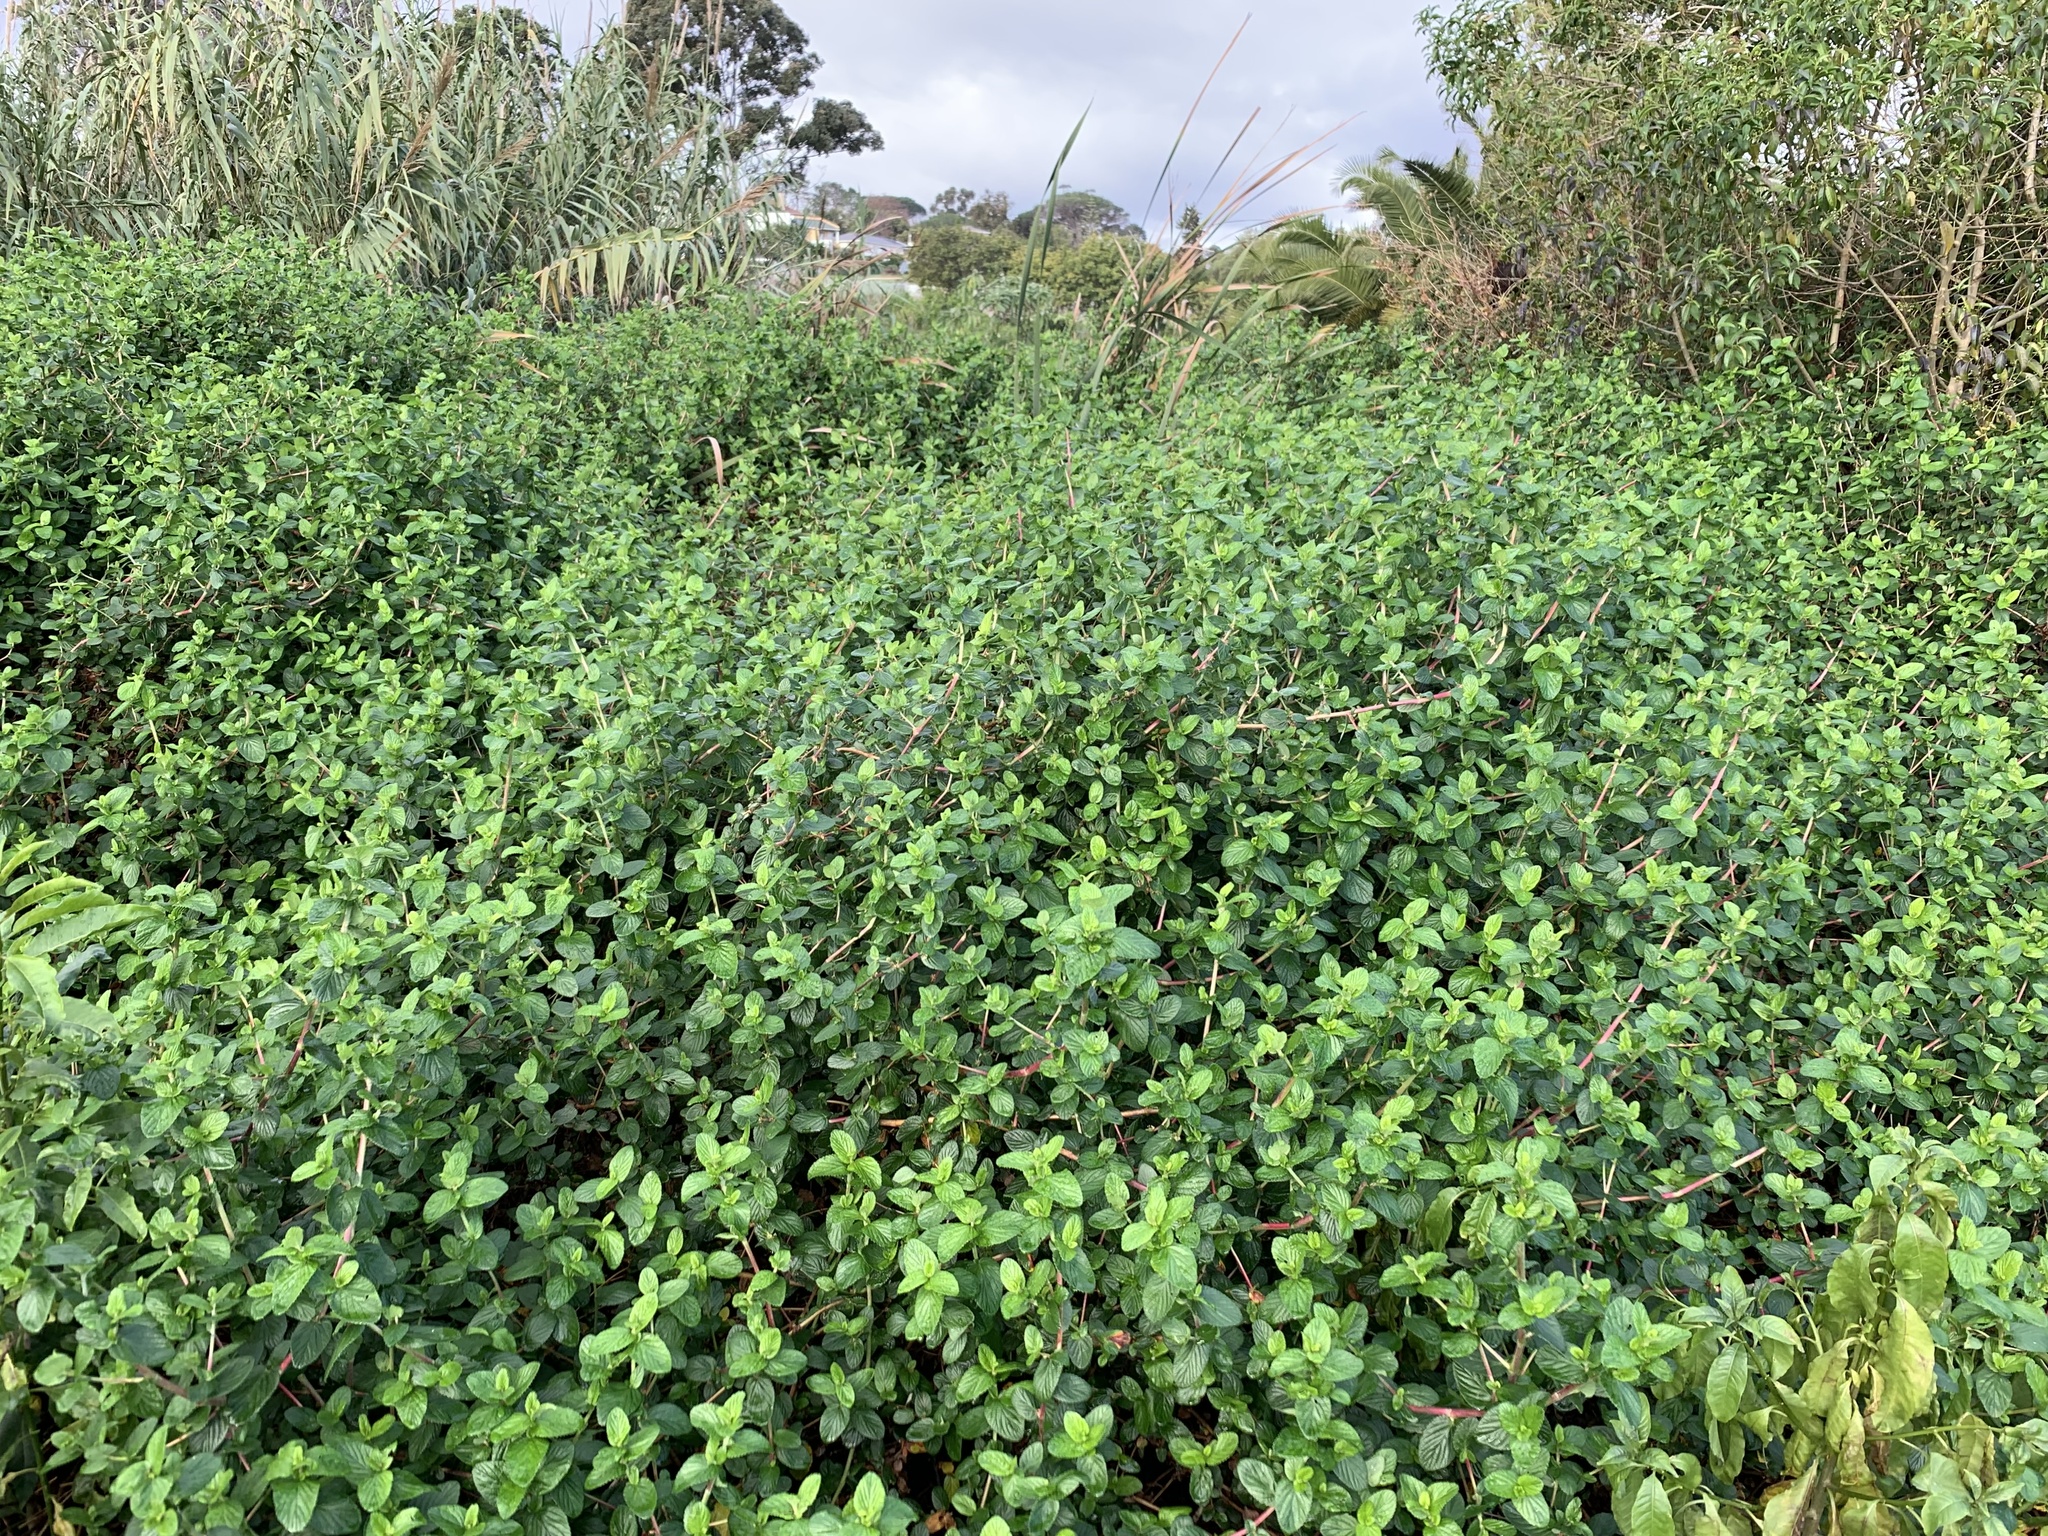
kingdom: Plantae
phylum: Tracheophyta
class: Magnoliopsida
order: Rosales
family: Rosaceae
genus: Cliffortia
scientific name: Cliffortia odorata
